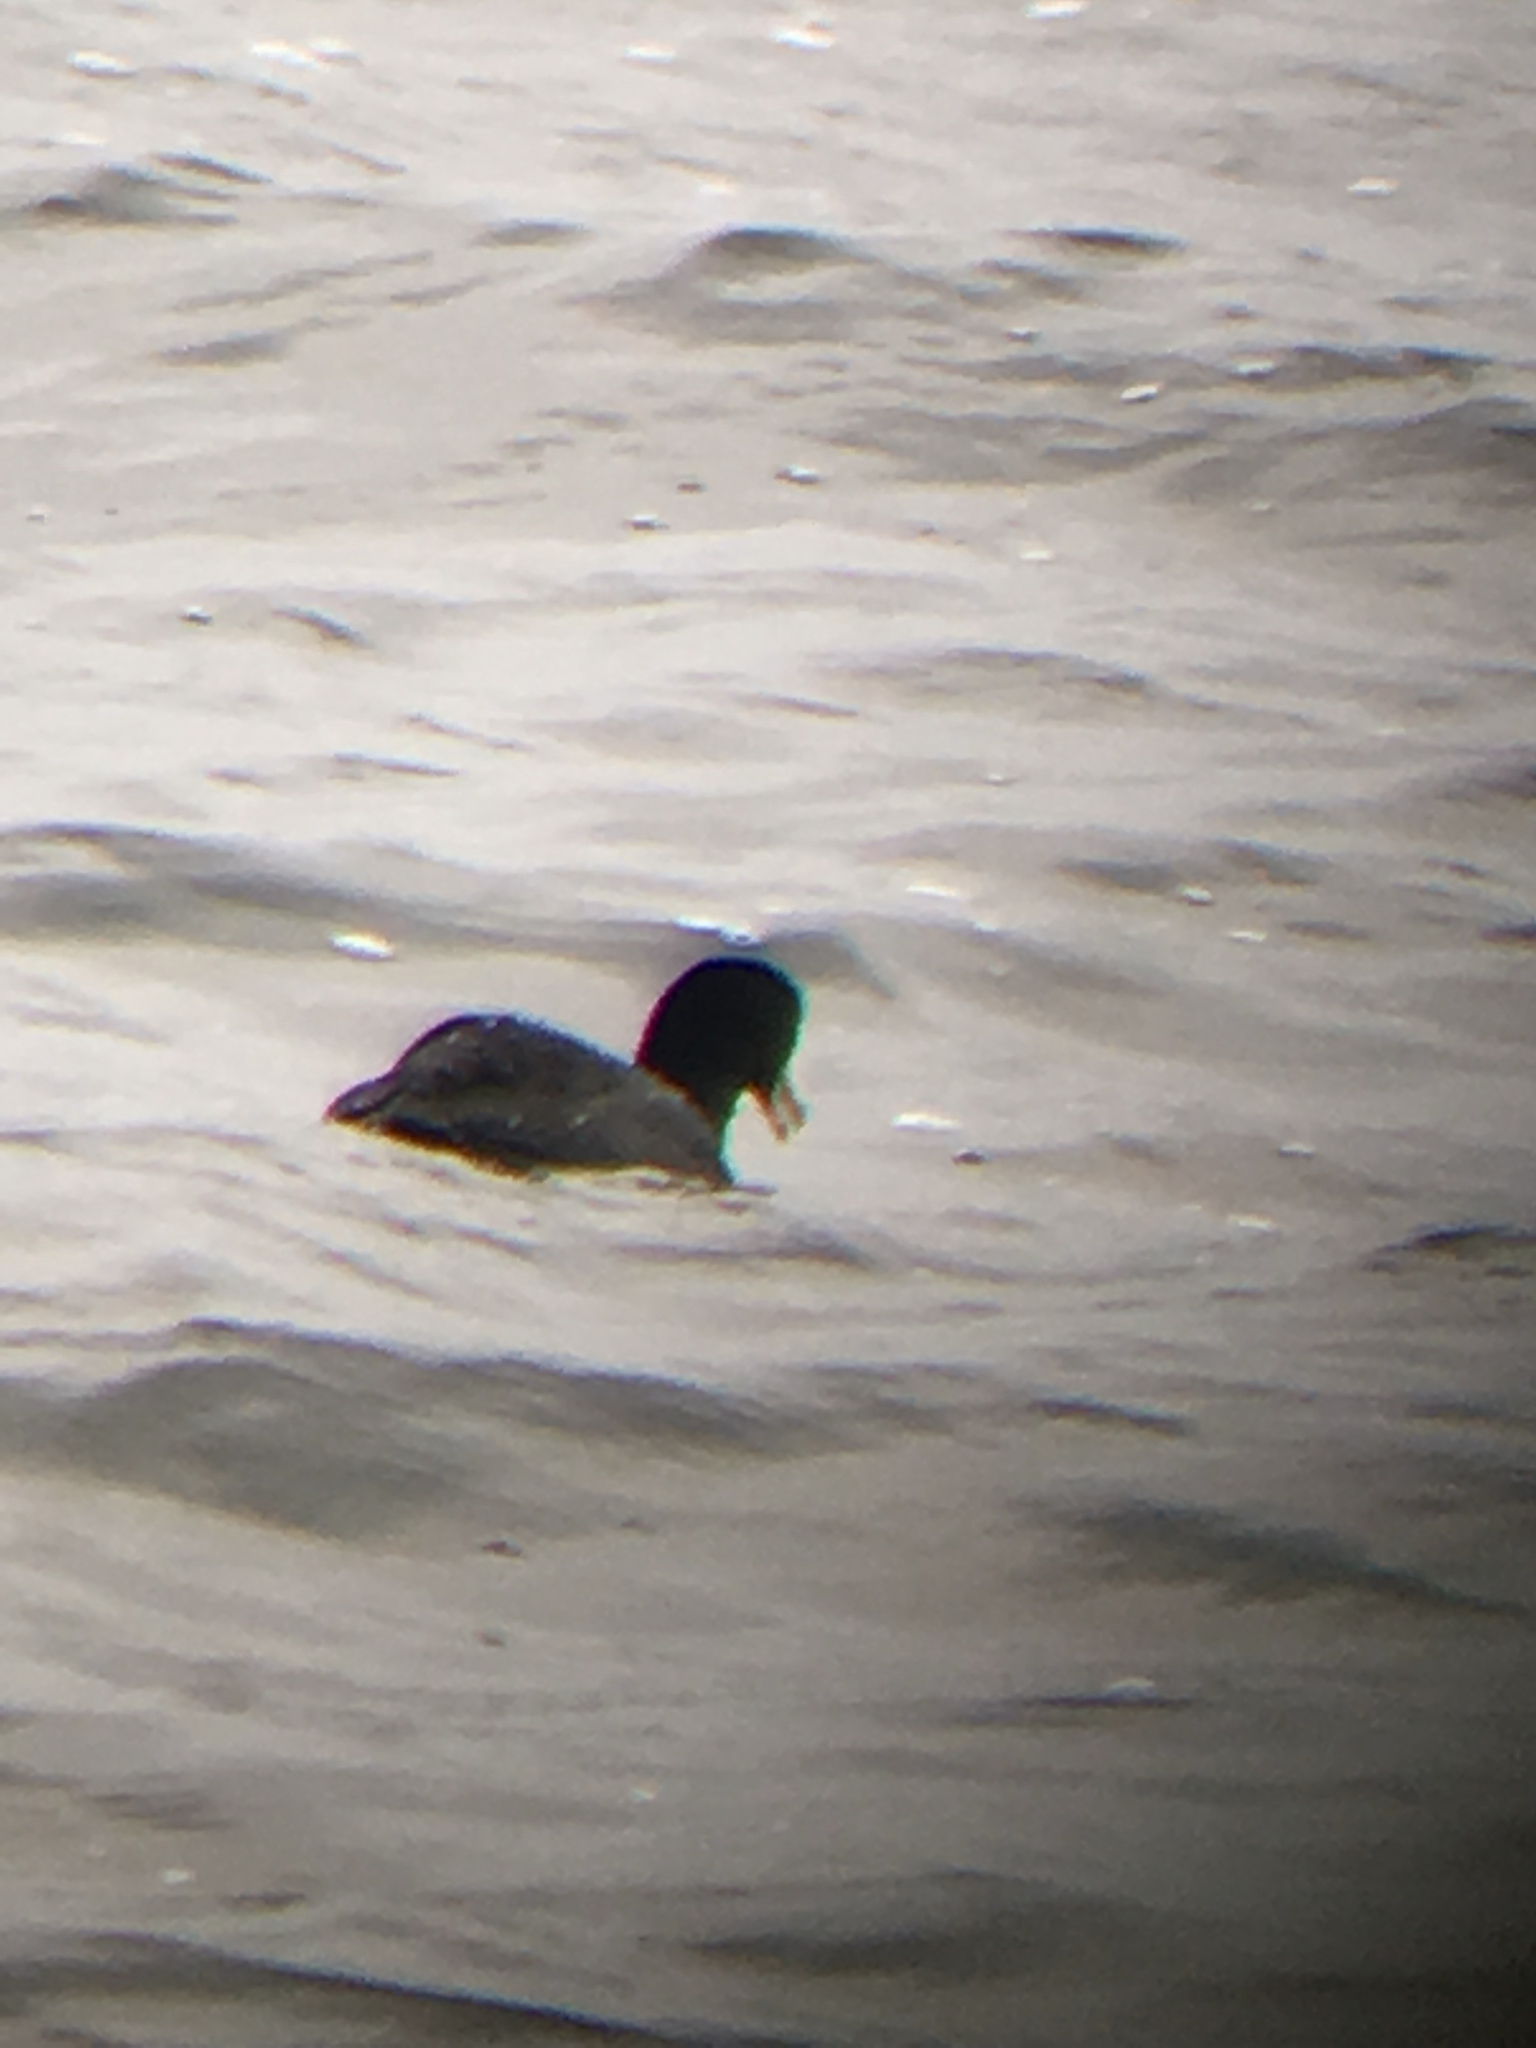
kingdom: Animalia
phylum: Chordata
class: Aves
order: Gruiformes
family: Rallidae
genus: Fulica
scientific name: Fulica americana
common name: American coot
